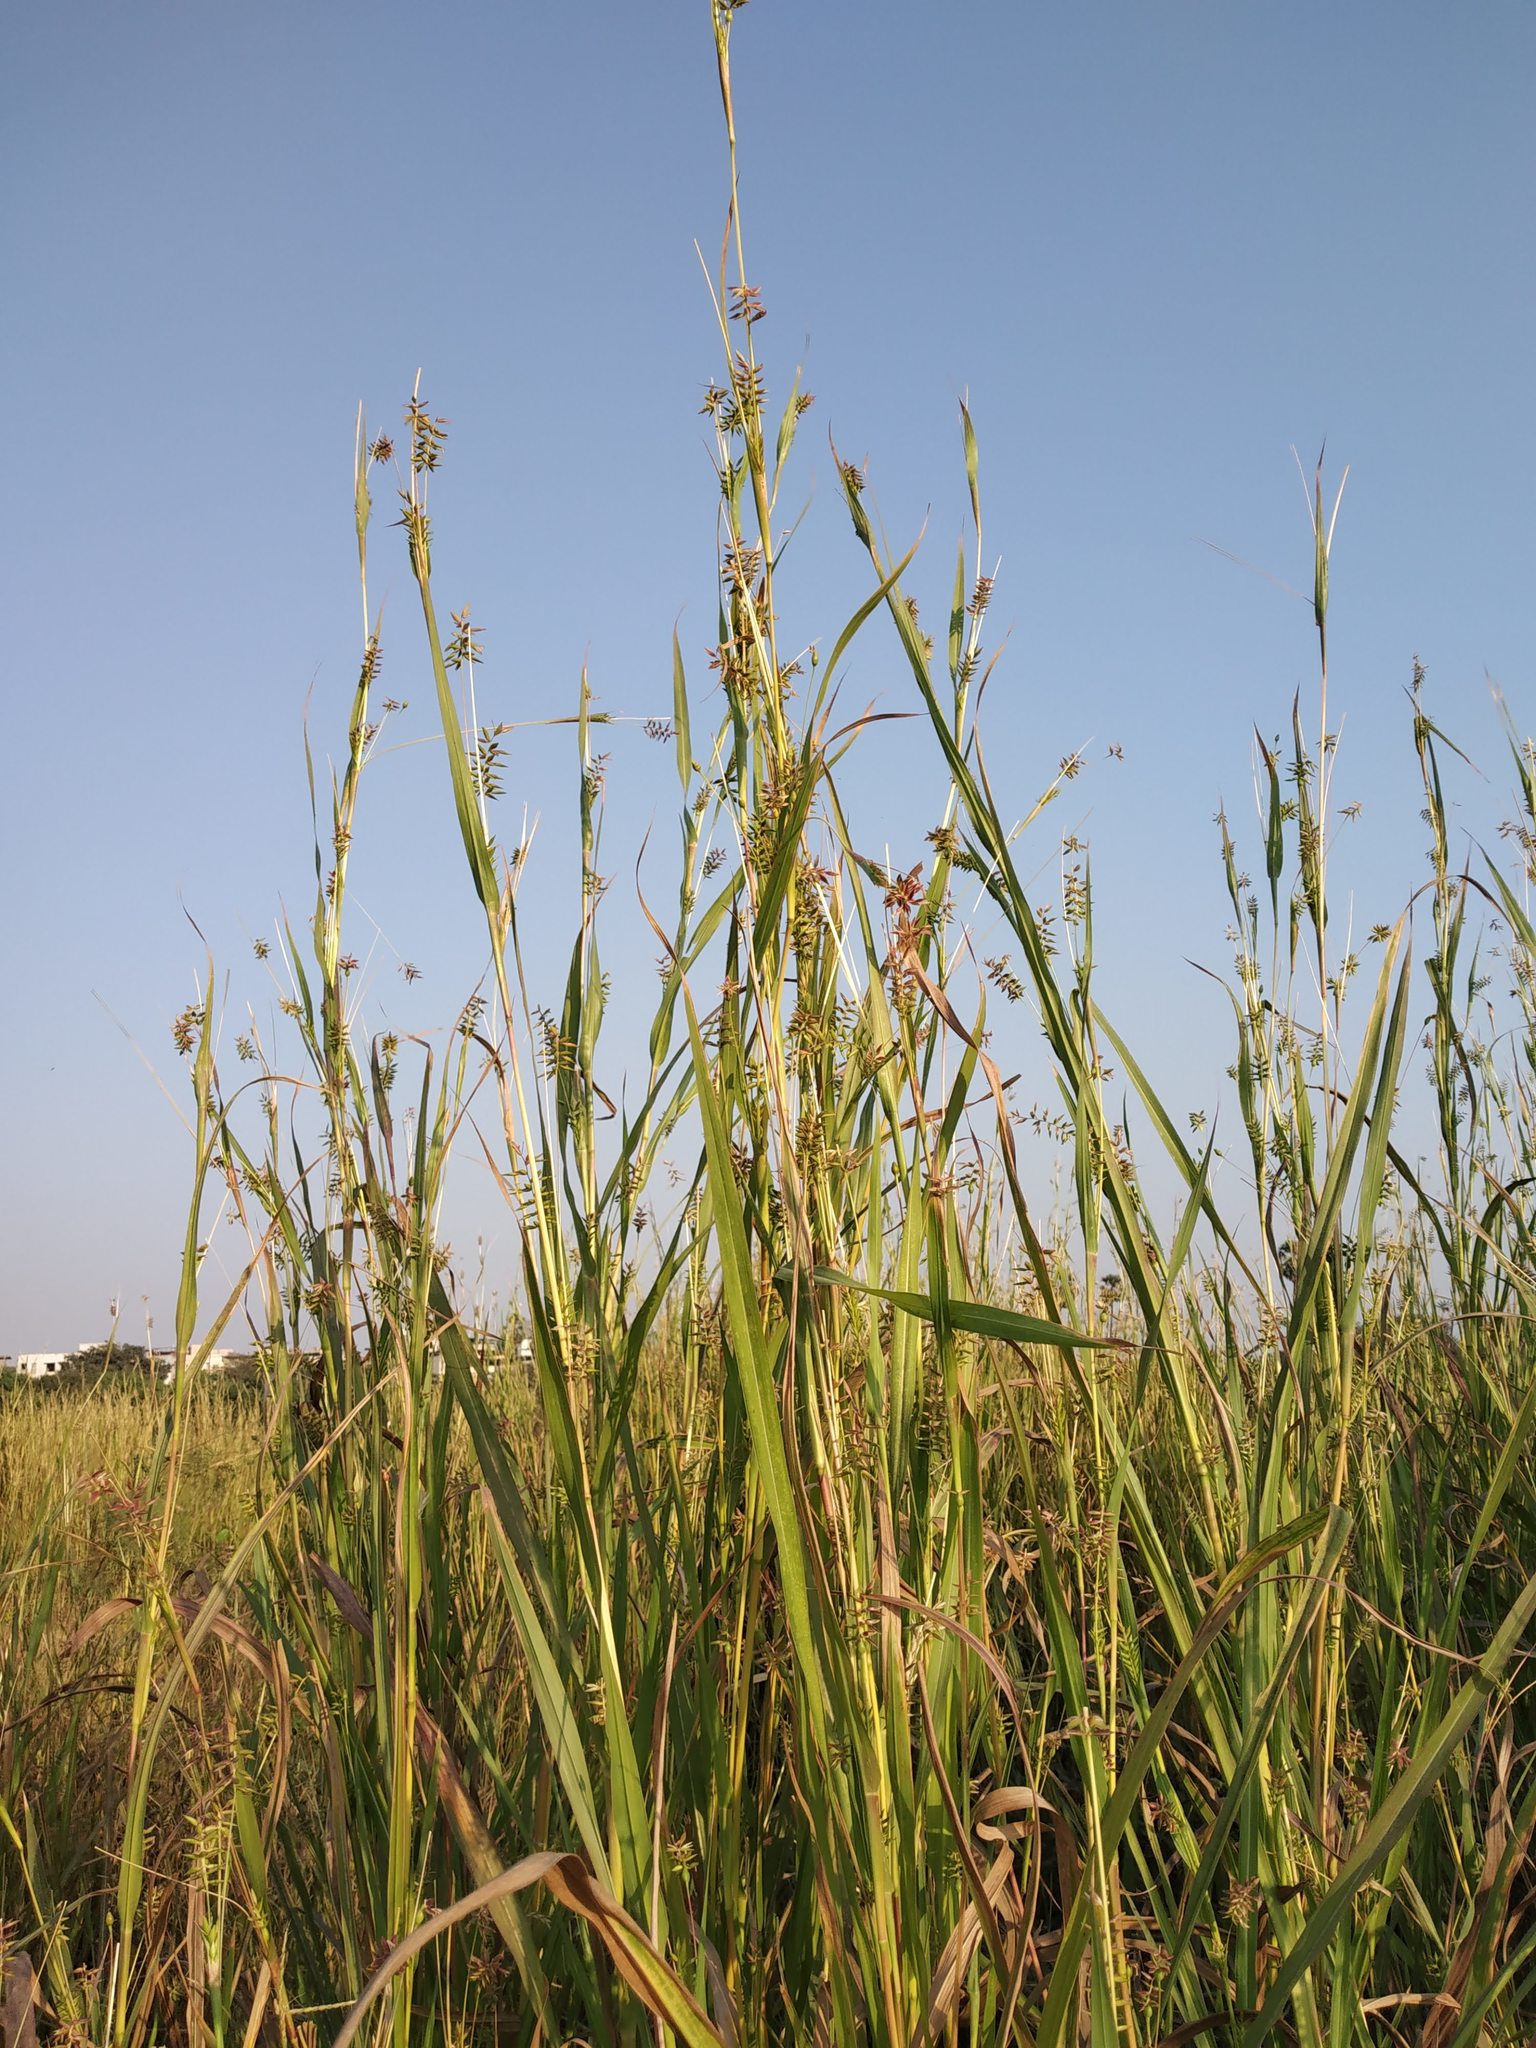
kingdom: Plantae
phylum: Tracheophyta
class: Liliopsida
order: Poales
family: Poaceae
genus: Coix
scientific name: Coix lacryma-jobi
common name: Job's tears
